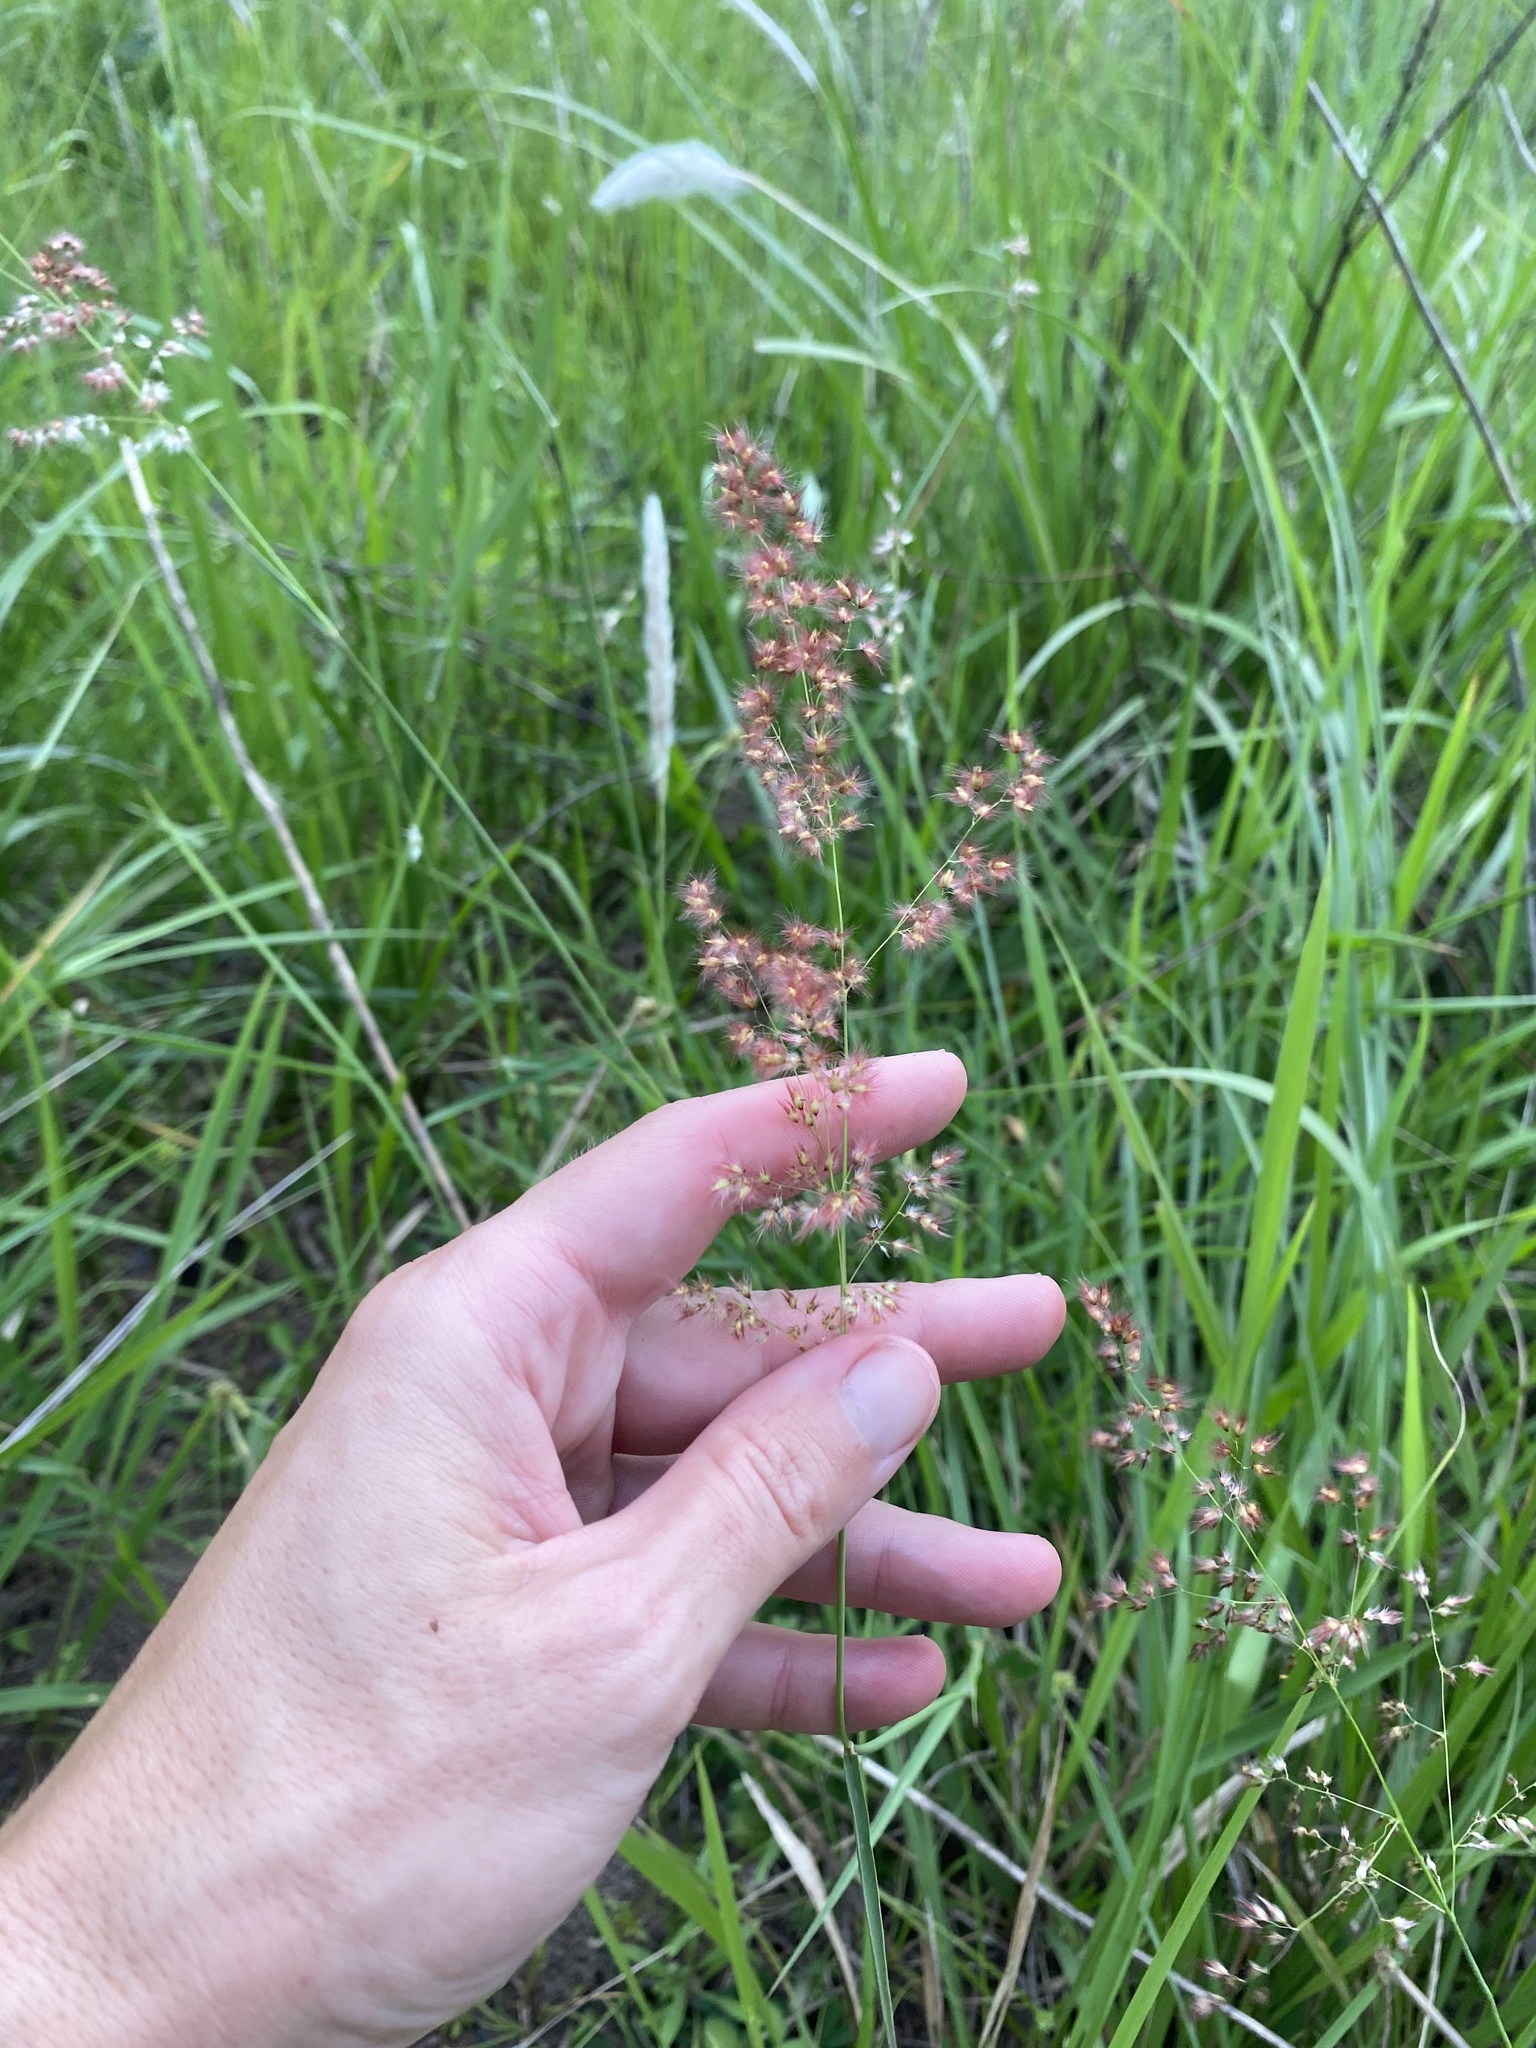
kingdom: Plantae
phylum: Tracheophyta
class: Liliopsida
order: Poales
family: Poaceae
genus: Melinis
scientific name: Melinis repens
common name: Rose natal grass
